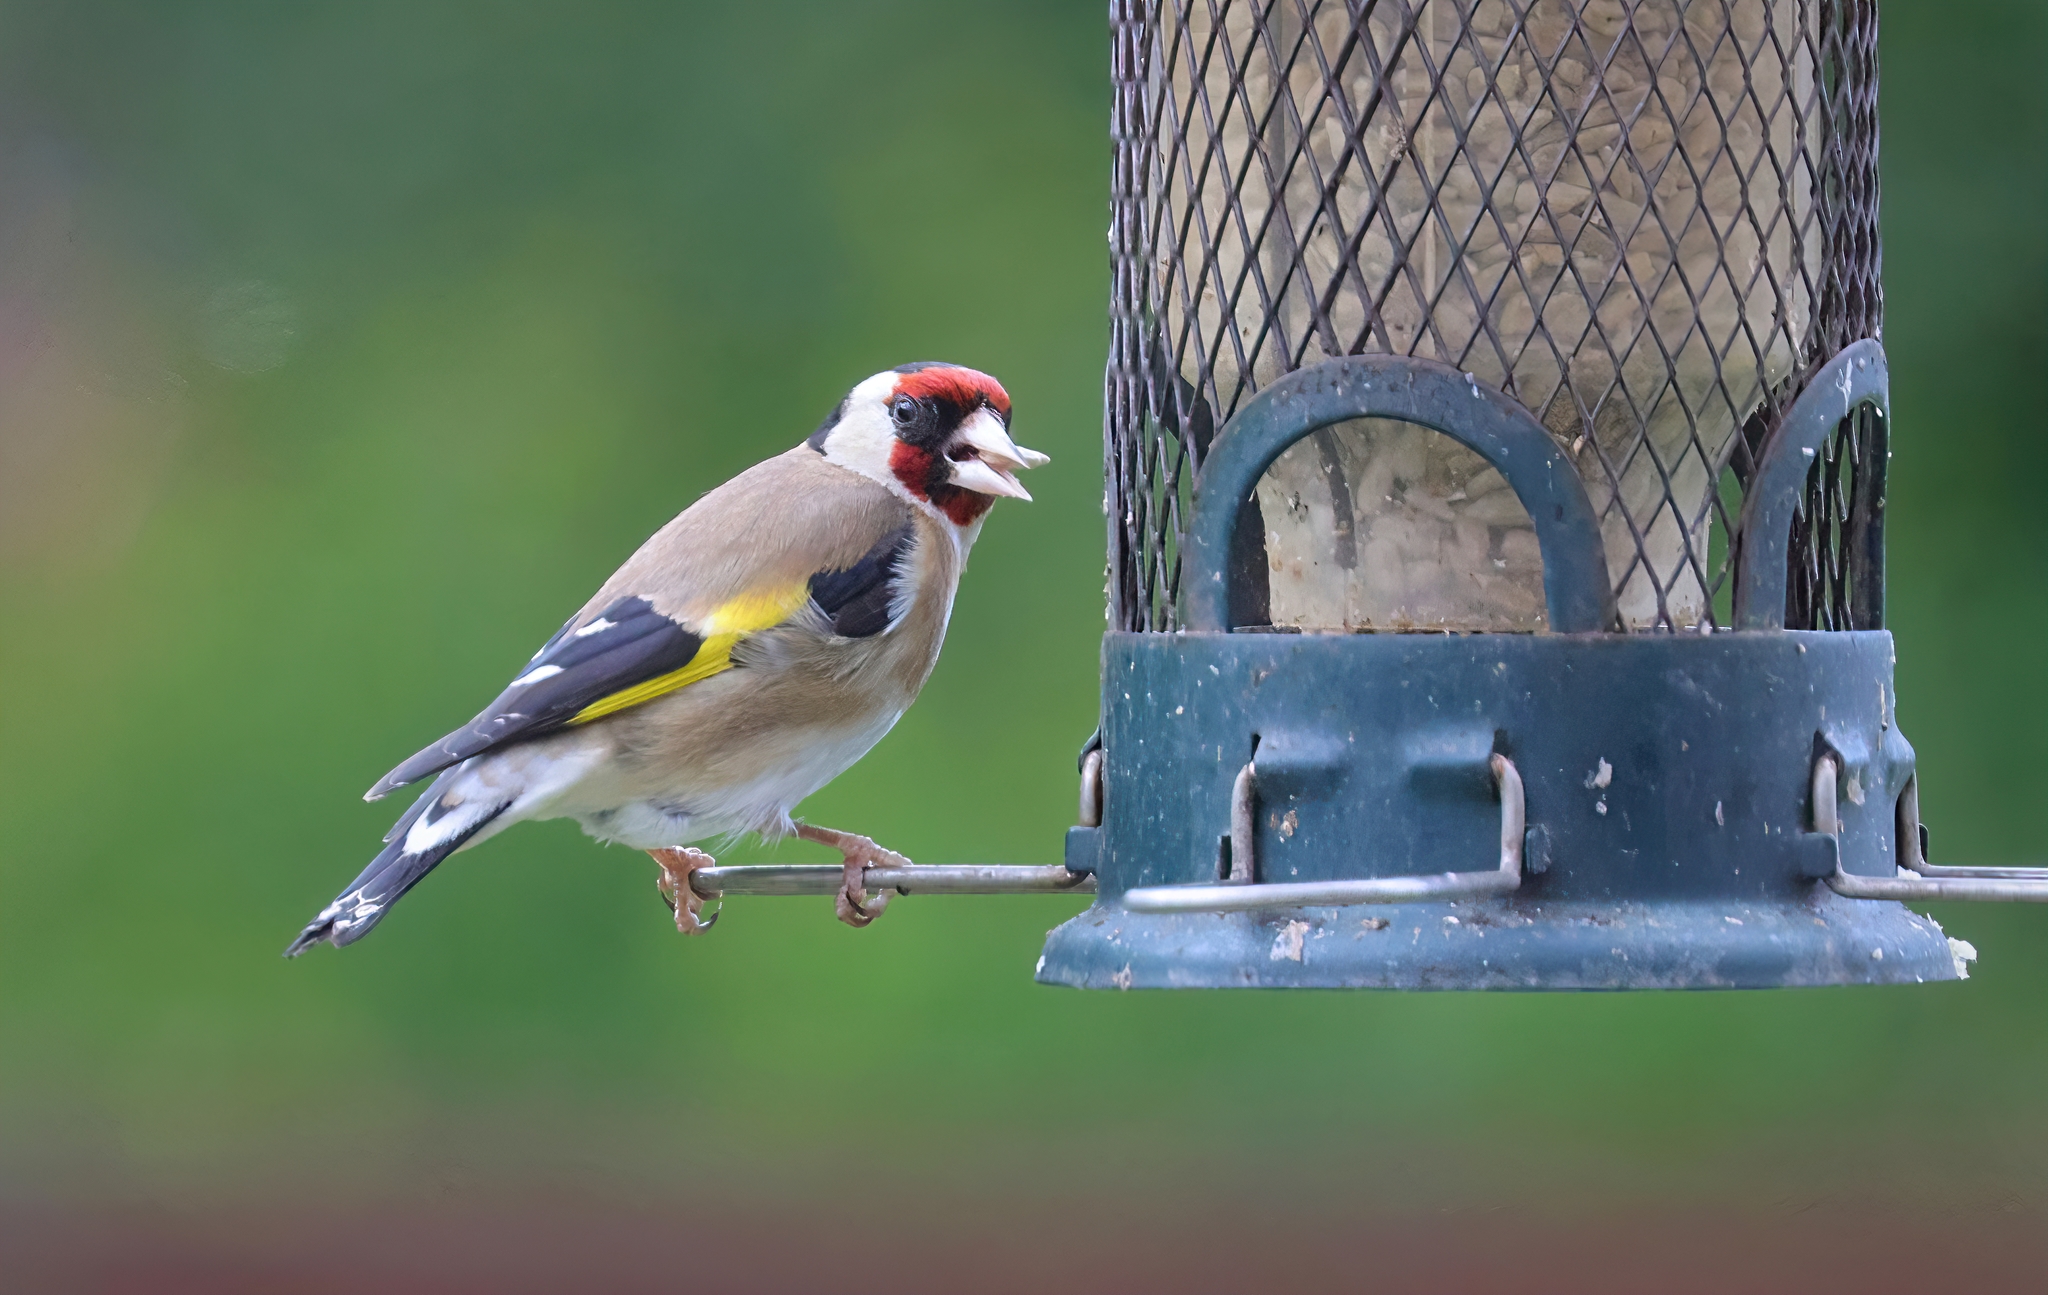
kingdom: Animalia
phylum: Chordata
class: Aves
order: Passeriformes
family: Fringillidae
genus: Carduelis
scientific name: Carduelis carduelis
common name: European goldfinch
